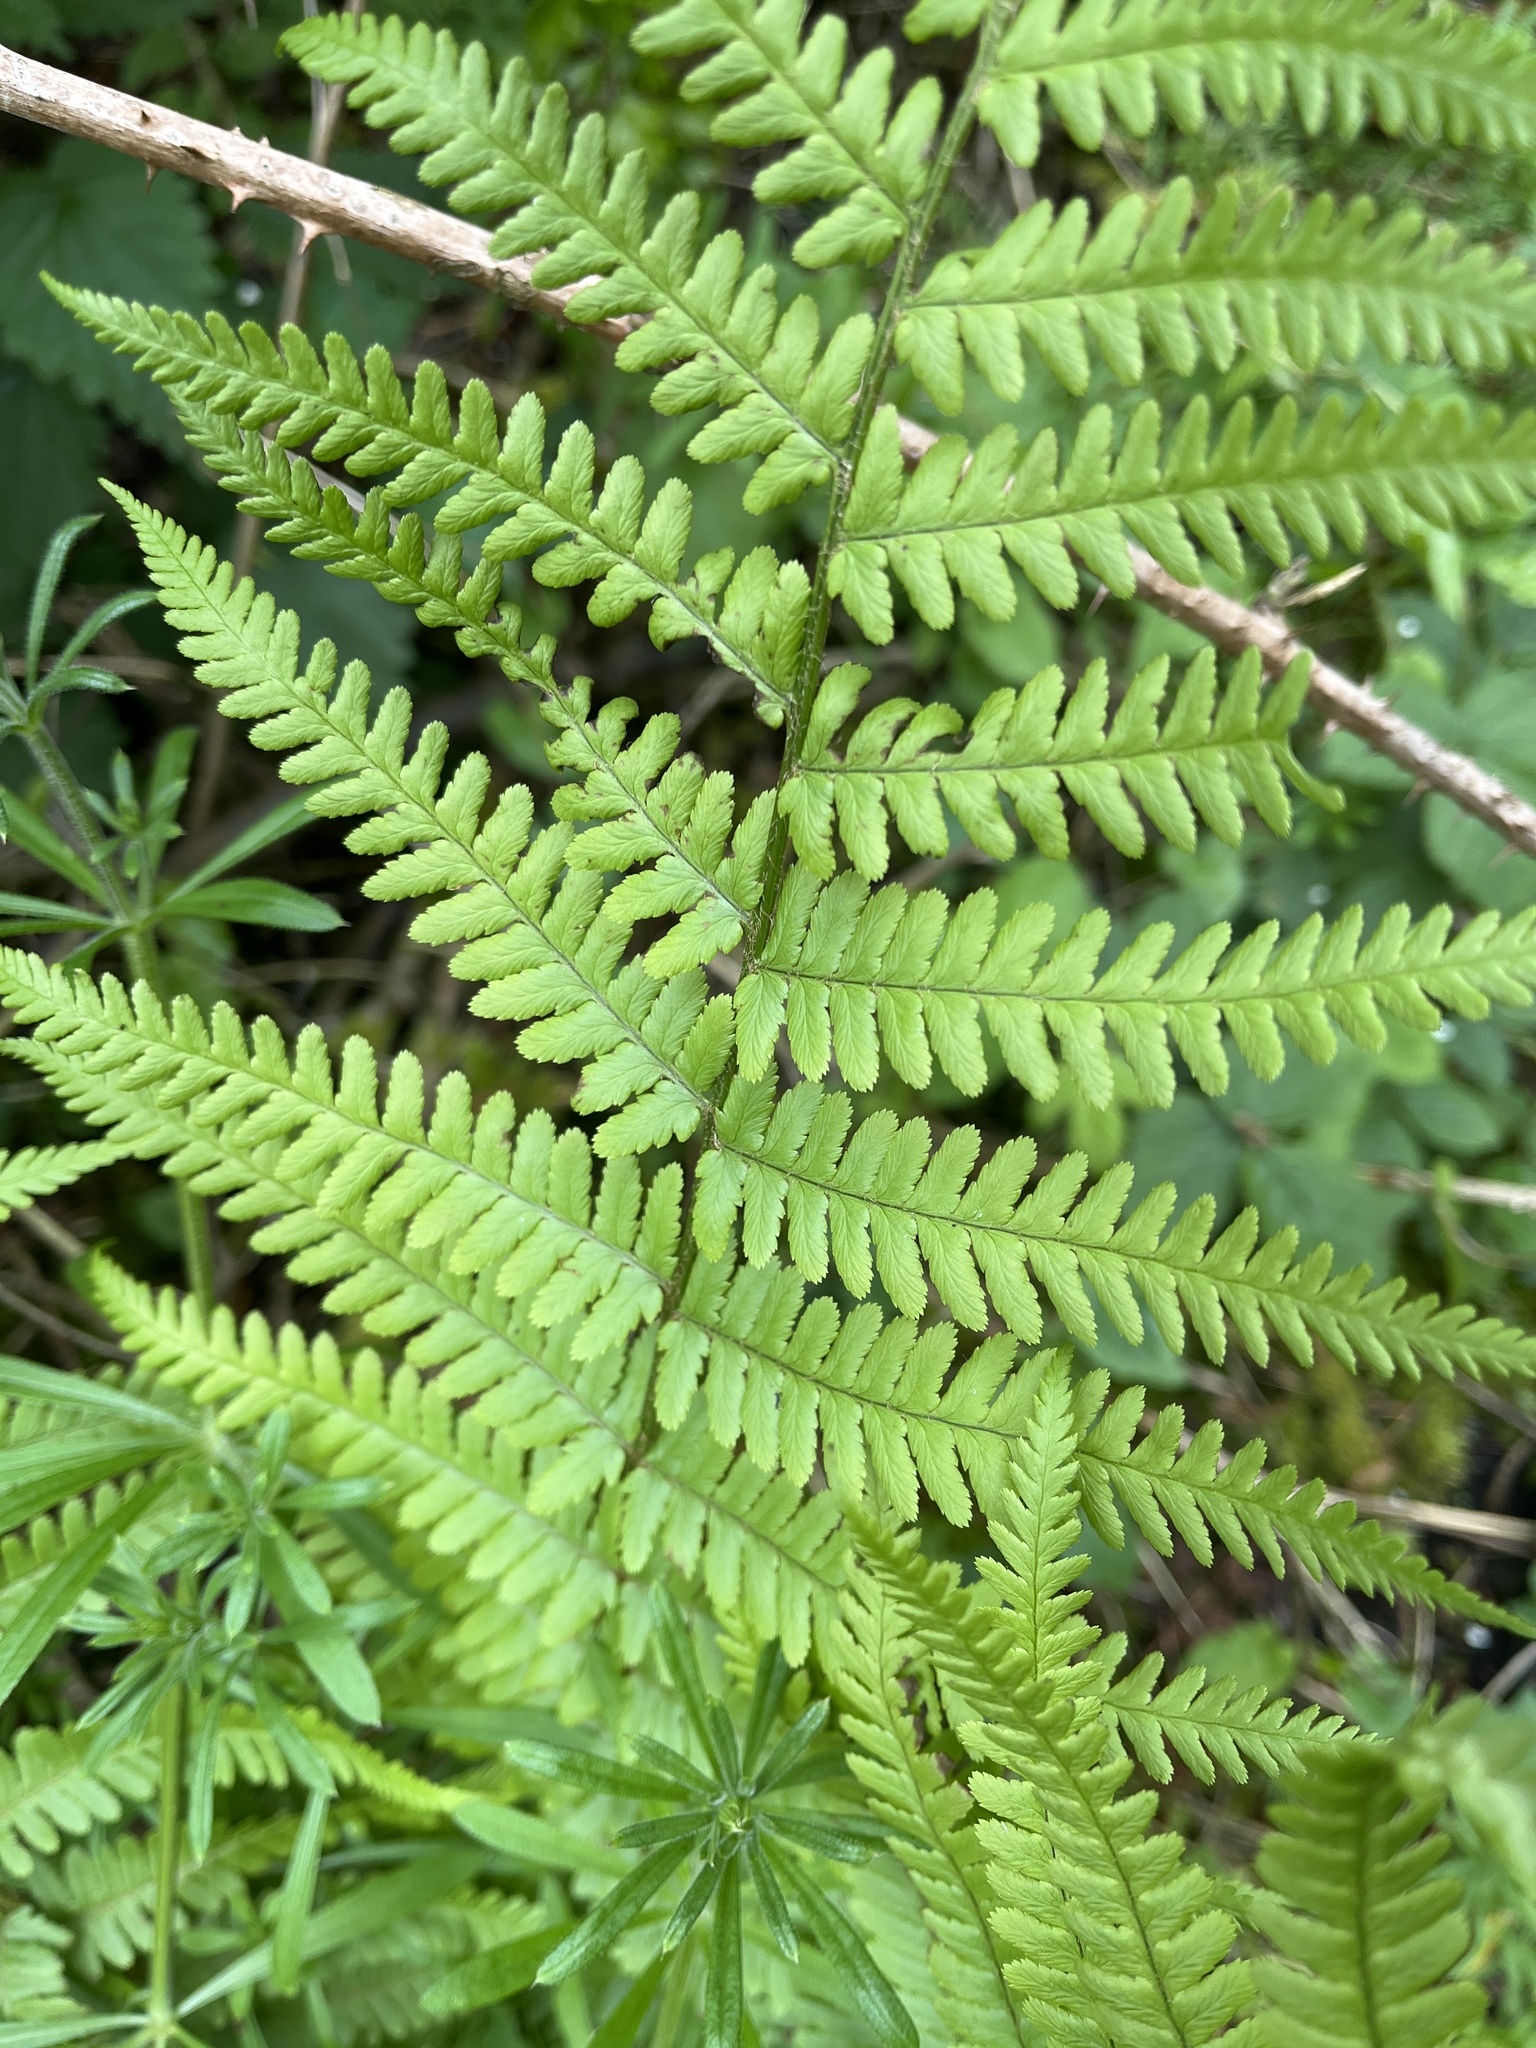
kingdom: Plantae
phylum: Tracheophyta
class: Polypodiopsida
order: Polypodiales
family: Dryopteridaceae
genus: Dryopteris
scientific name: Dryopteris filix-mas
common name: Male fern
